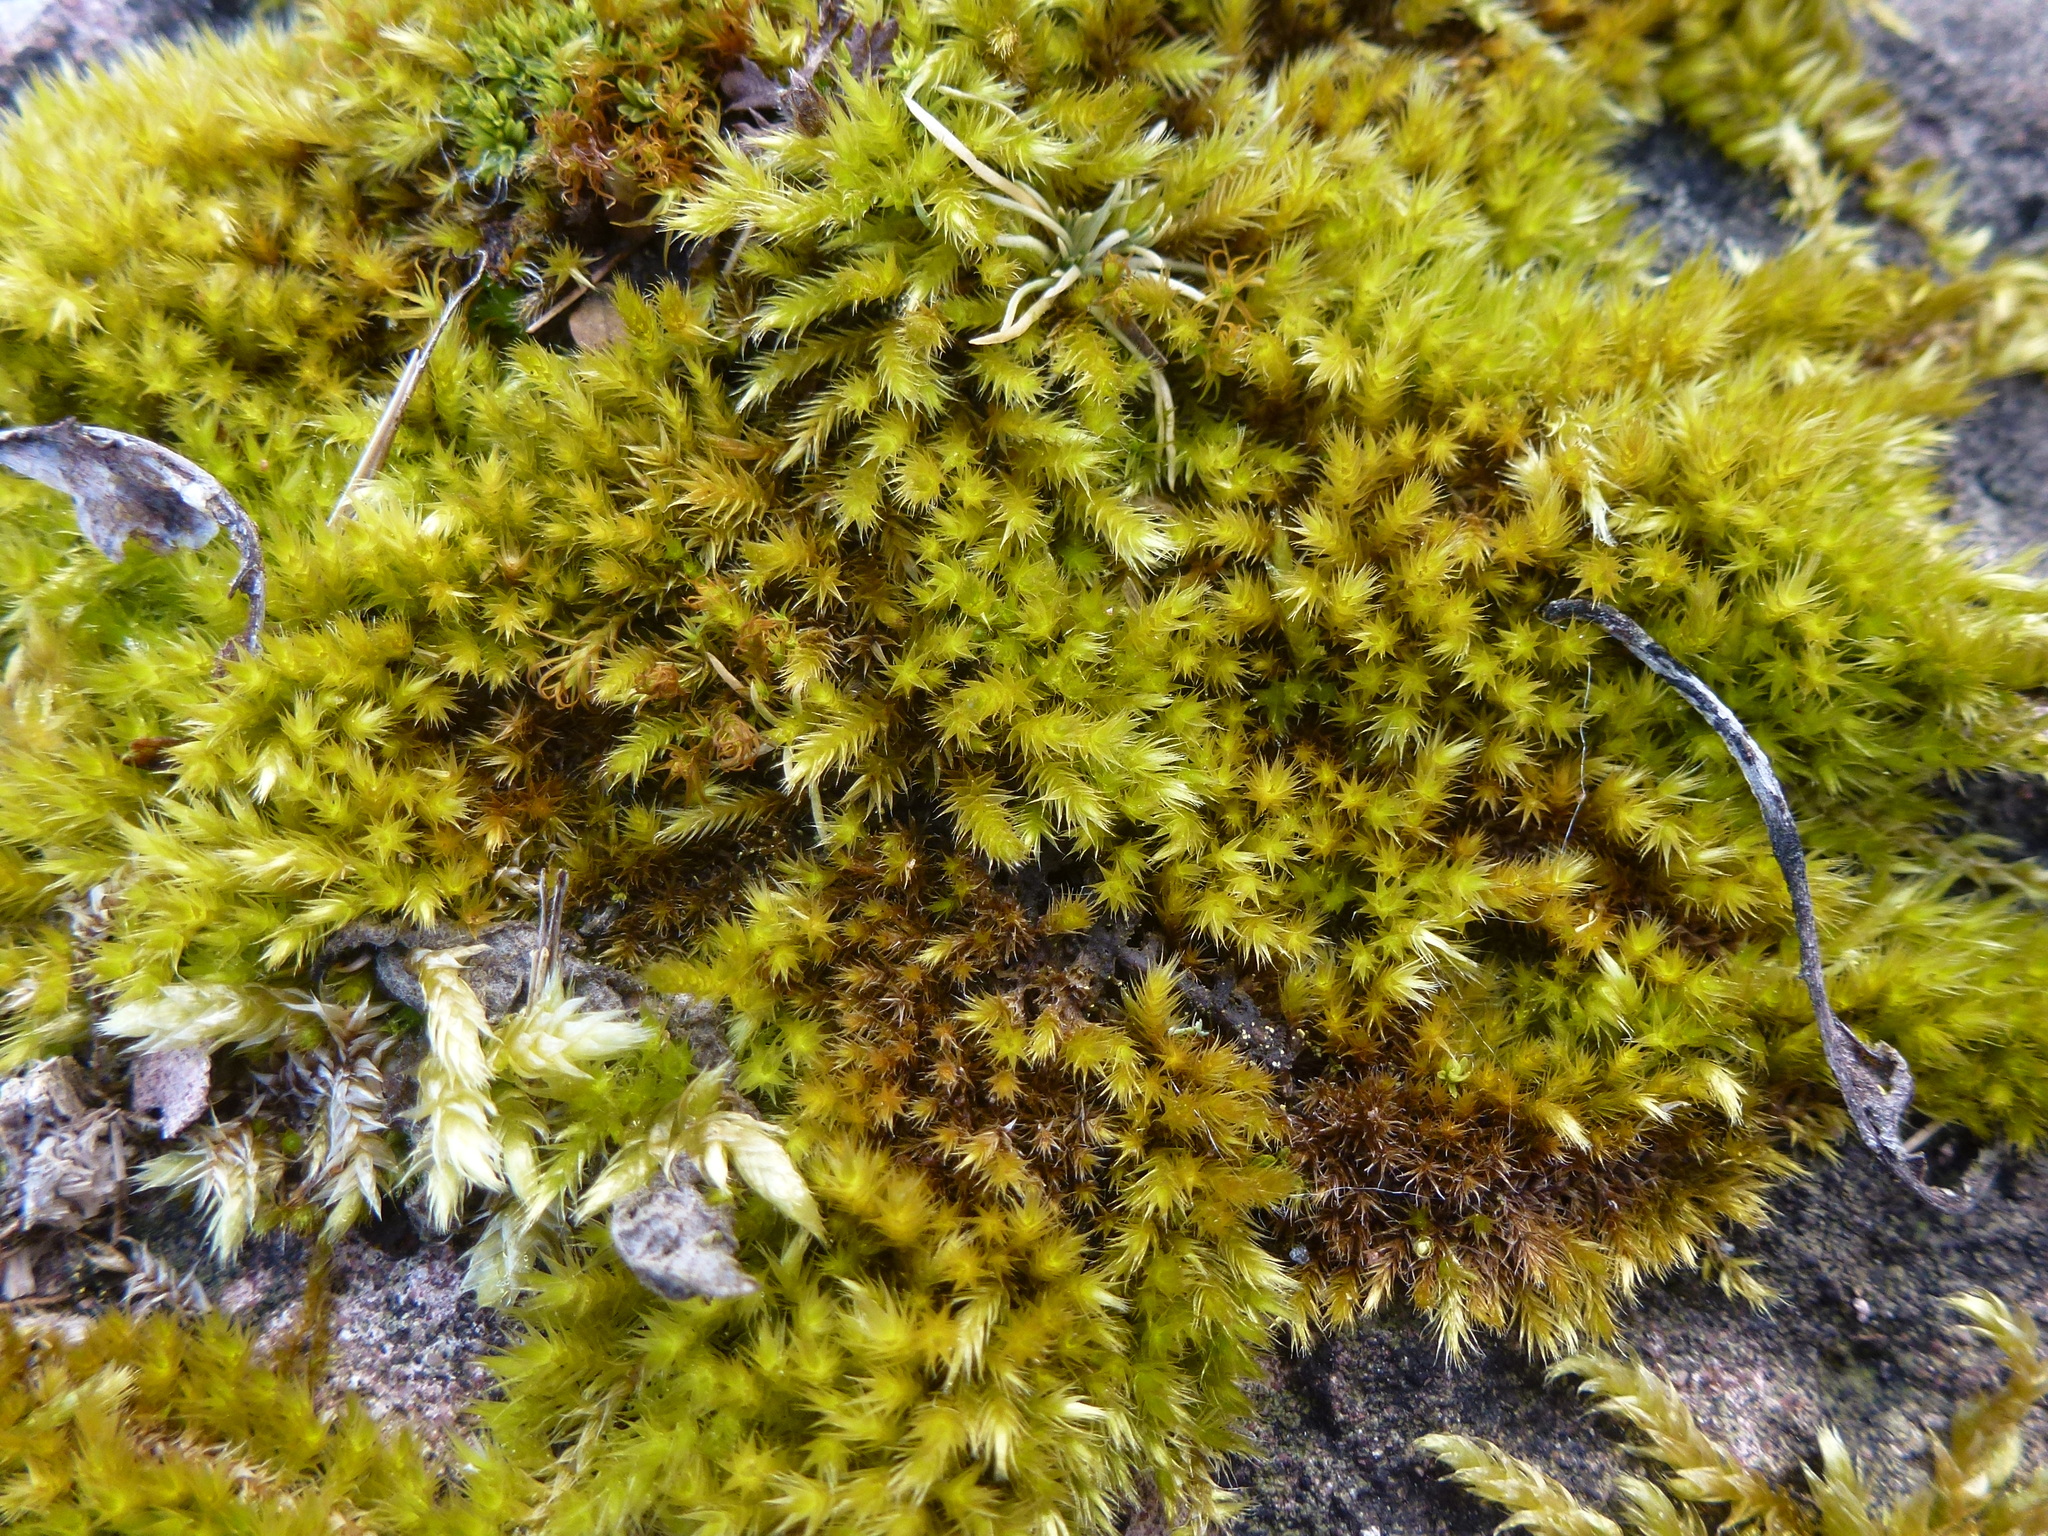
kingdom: Plantae
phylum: Bryophyta
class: Bryopsida
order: Hypnales
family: Brachytheciaceae
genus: Homalothecium
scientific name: Homalothecium sericeum
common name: Silky wall feather-moss
